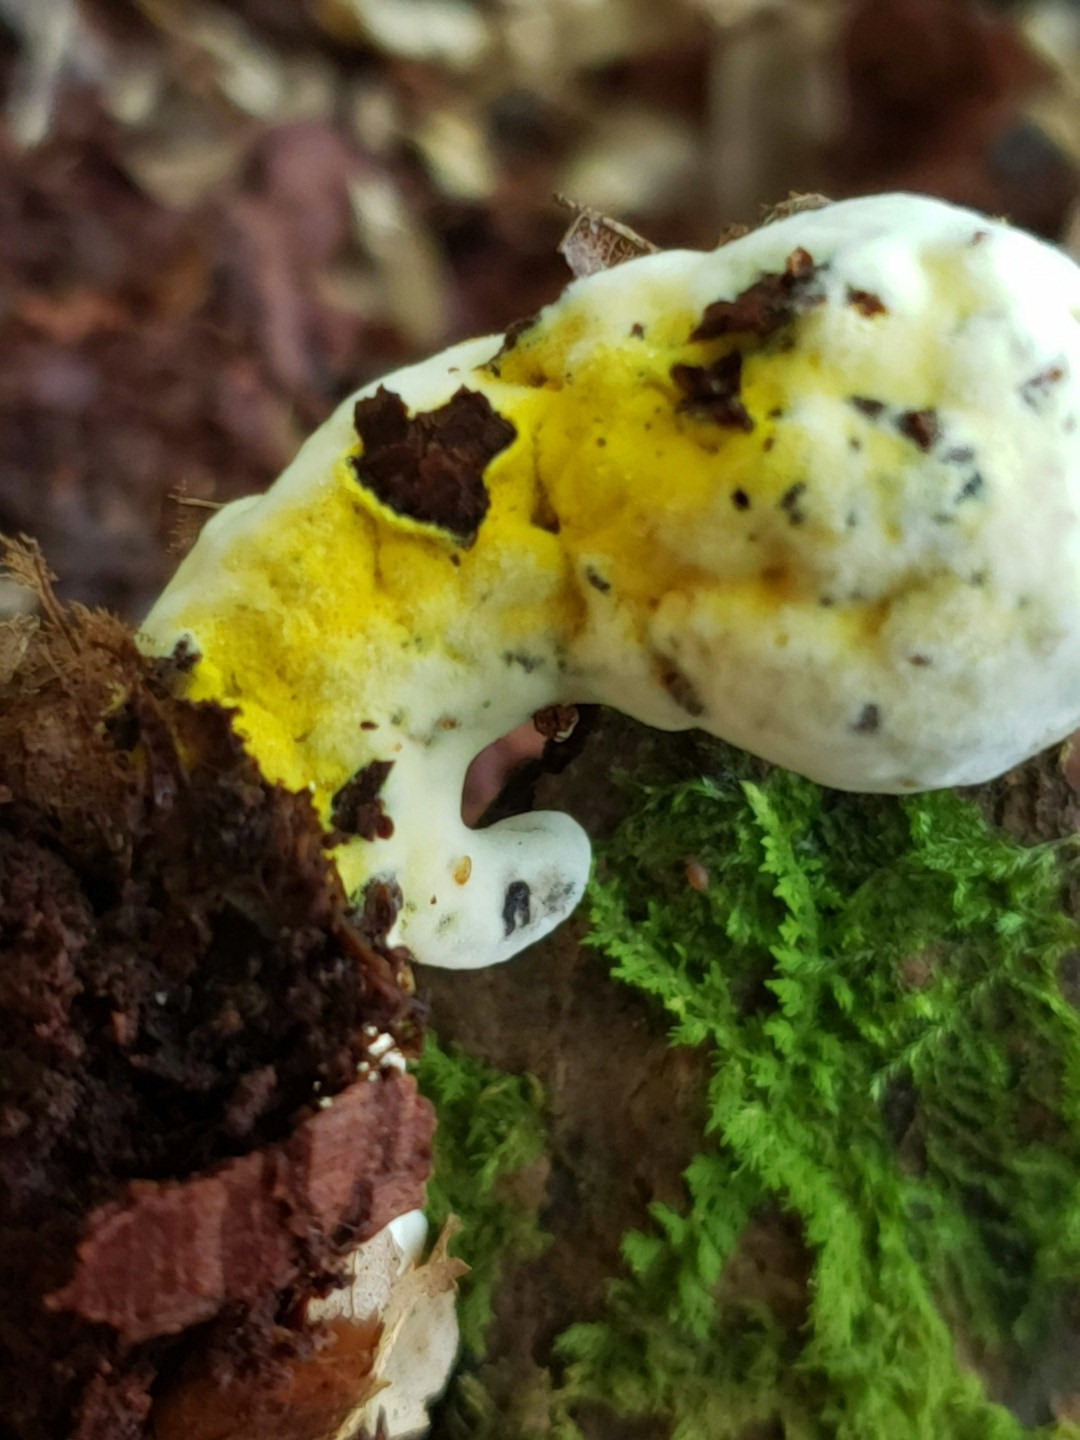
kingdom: Fungi
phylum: Ascomycota
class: Sordariomycetes
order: Hypocreales
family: Hypocreaceae
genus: Hypomyces
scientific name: Hypomyces chrysospermus
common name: Bolete mould
